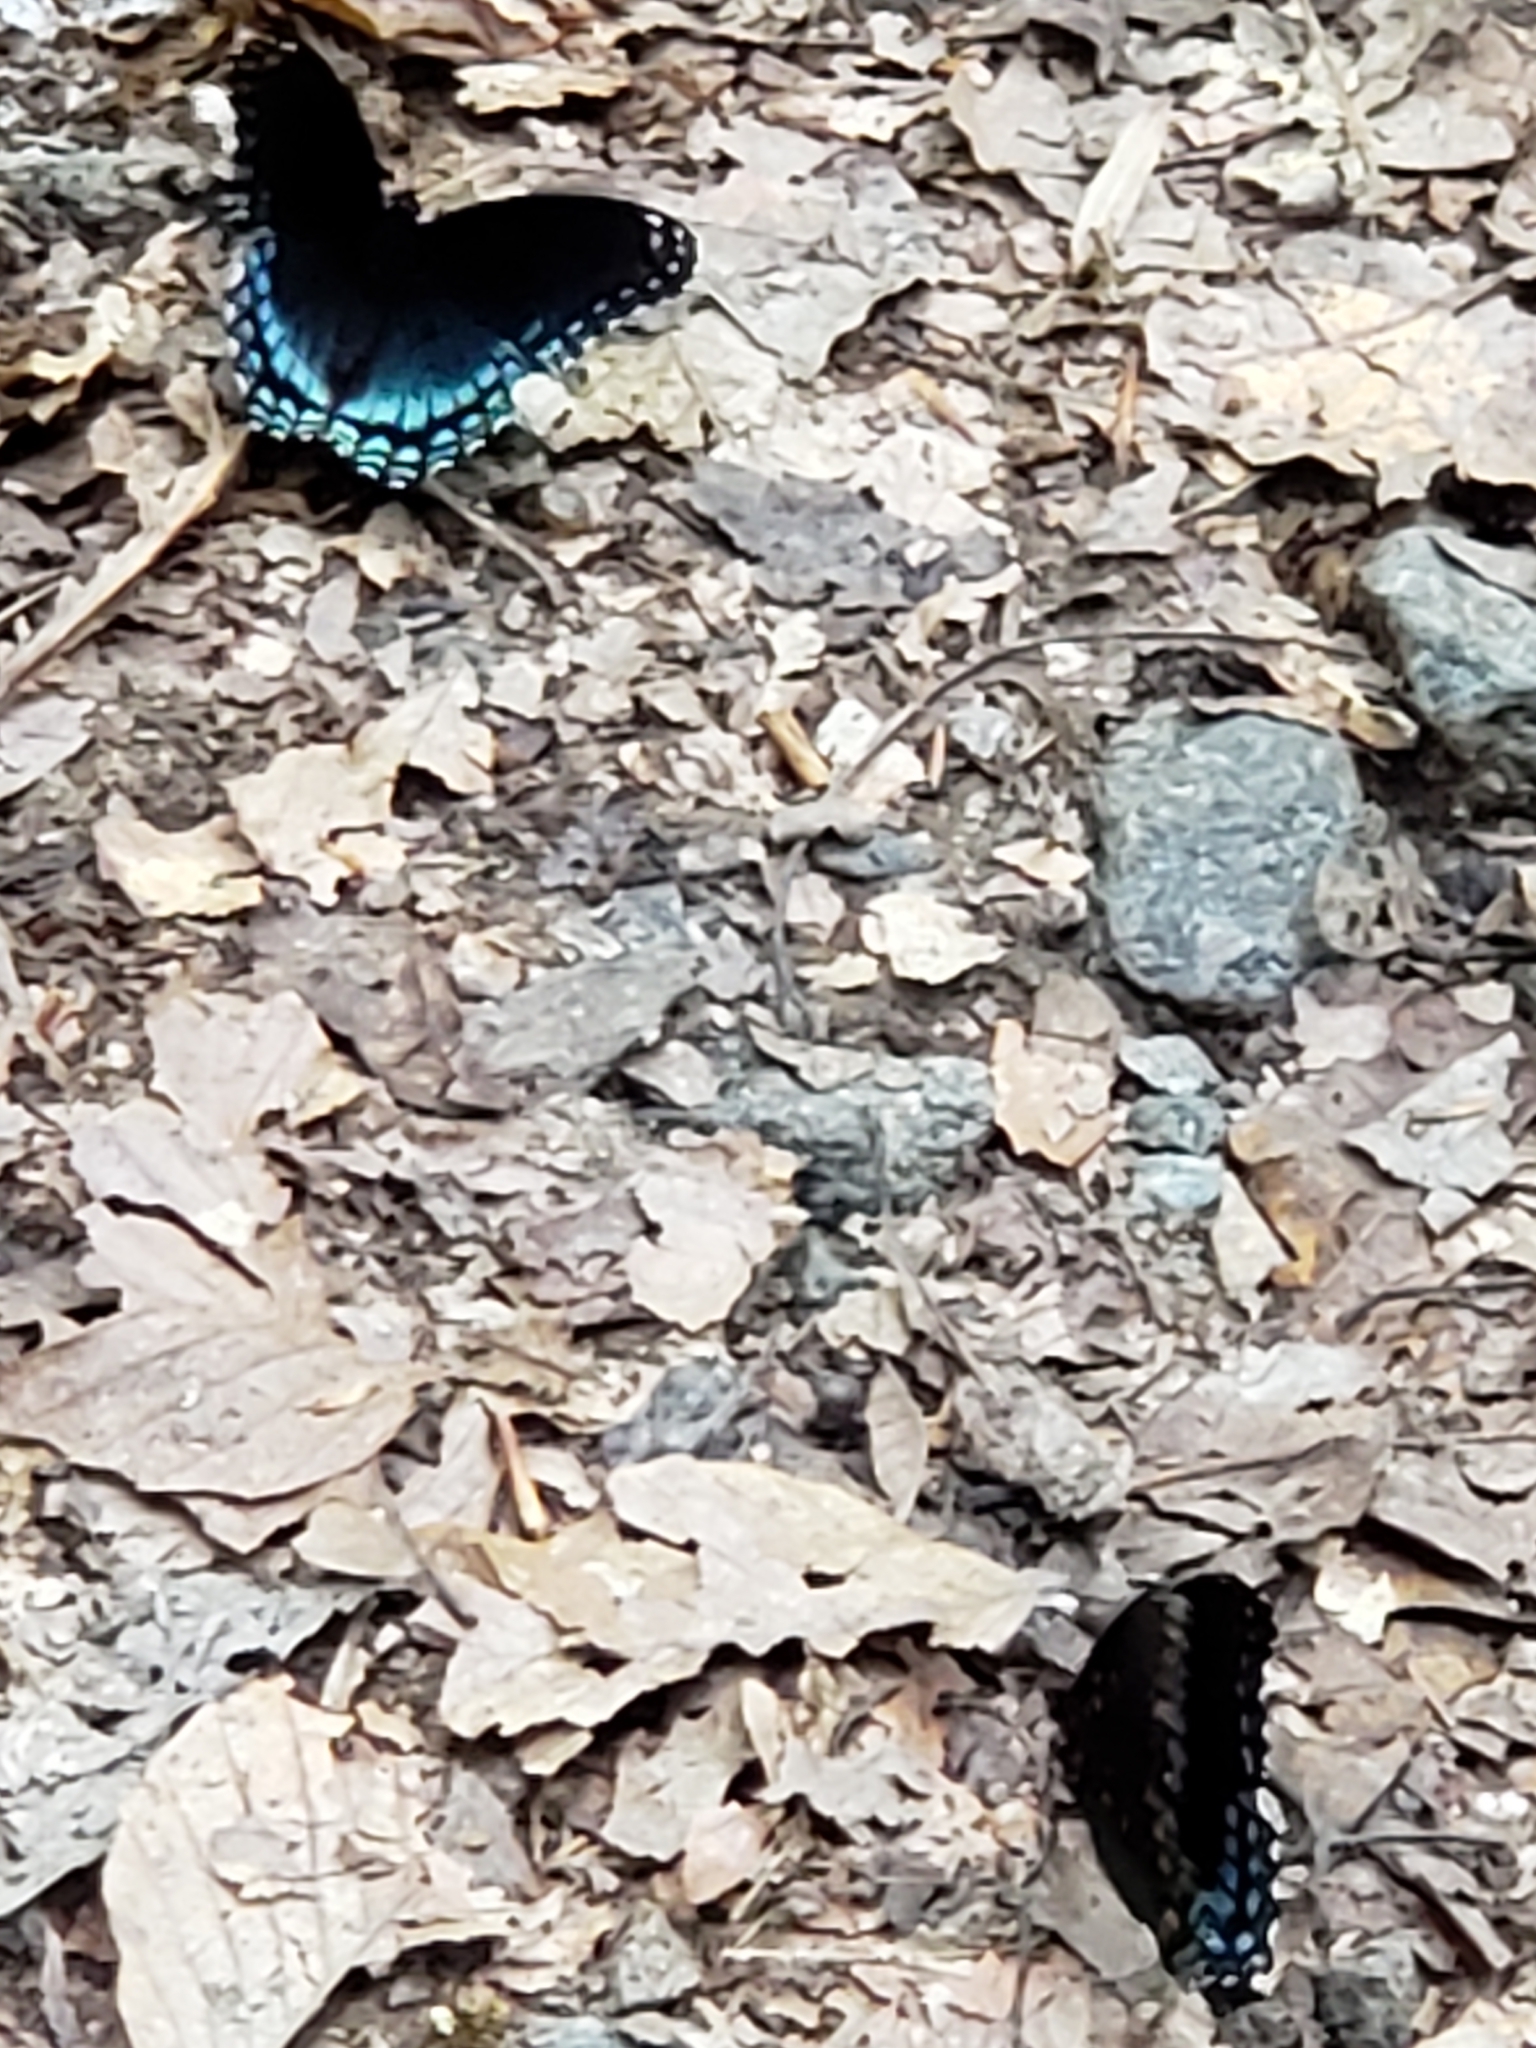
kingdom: Animalia
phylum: Arthropoda
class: Insecta
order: Lepidoptera
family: Nymphalidae
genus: Limenitis
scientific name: Limenitis astyanax
